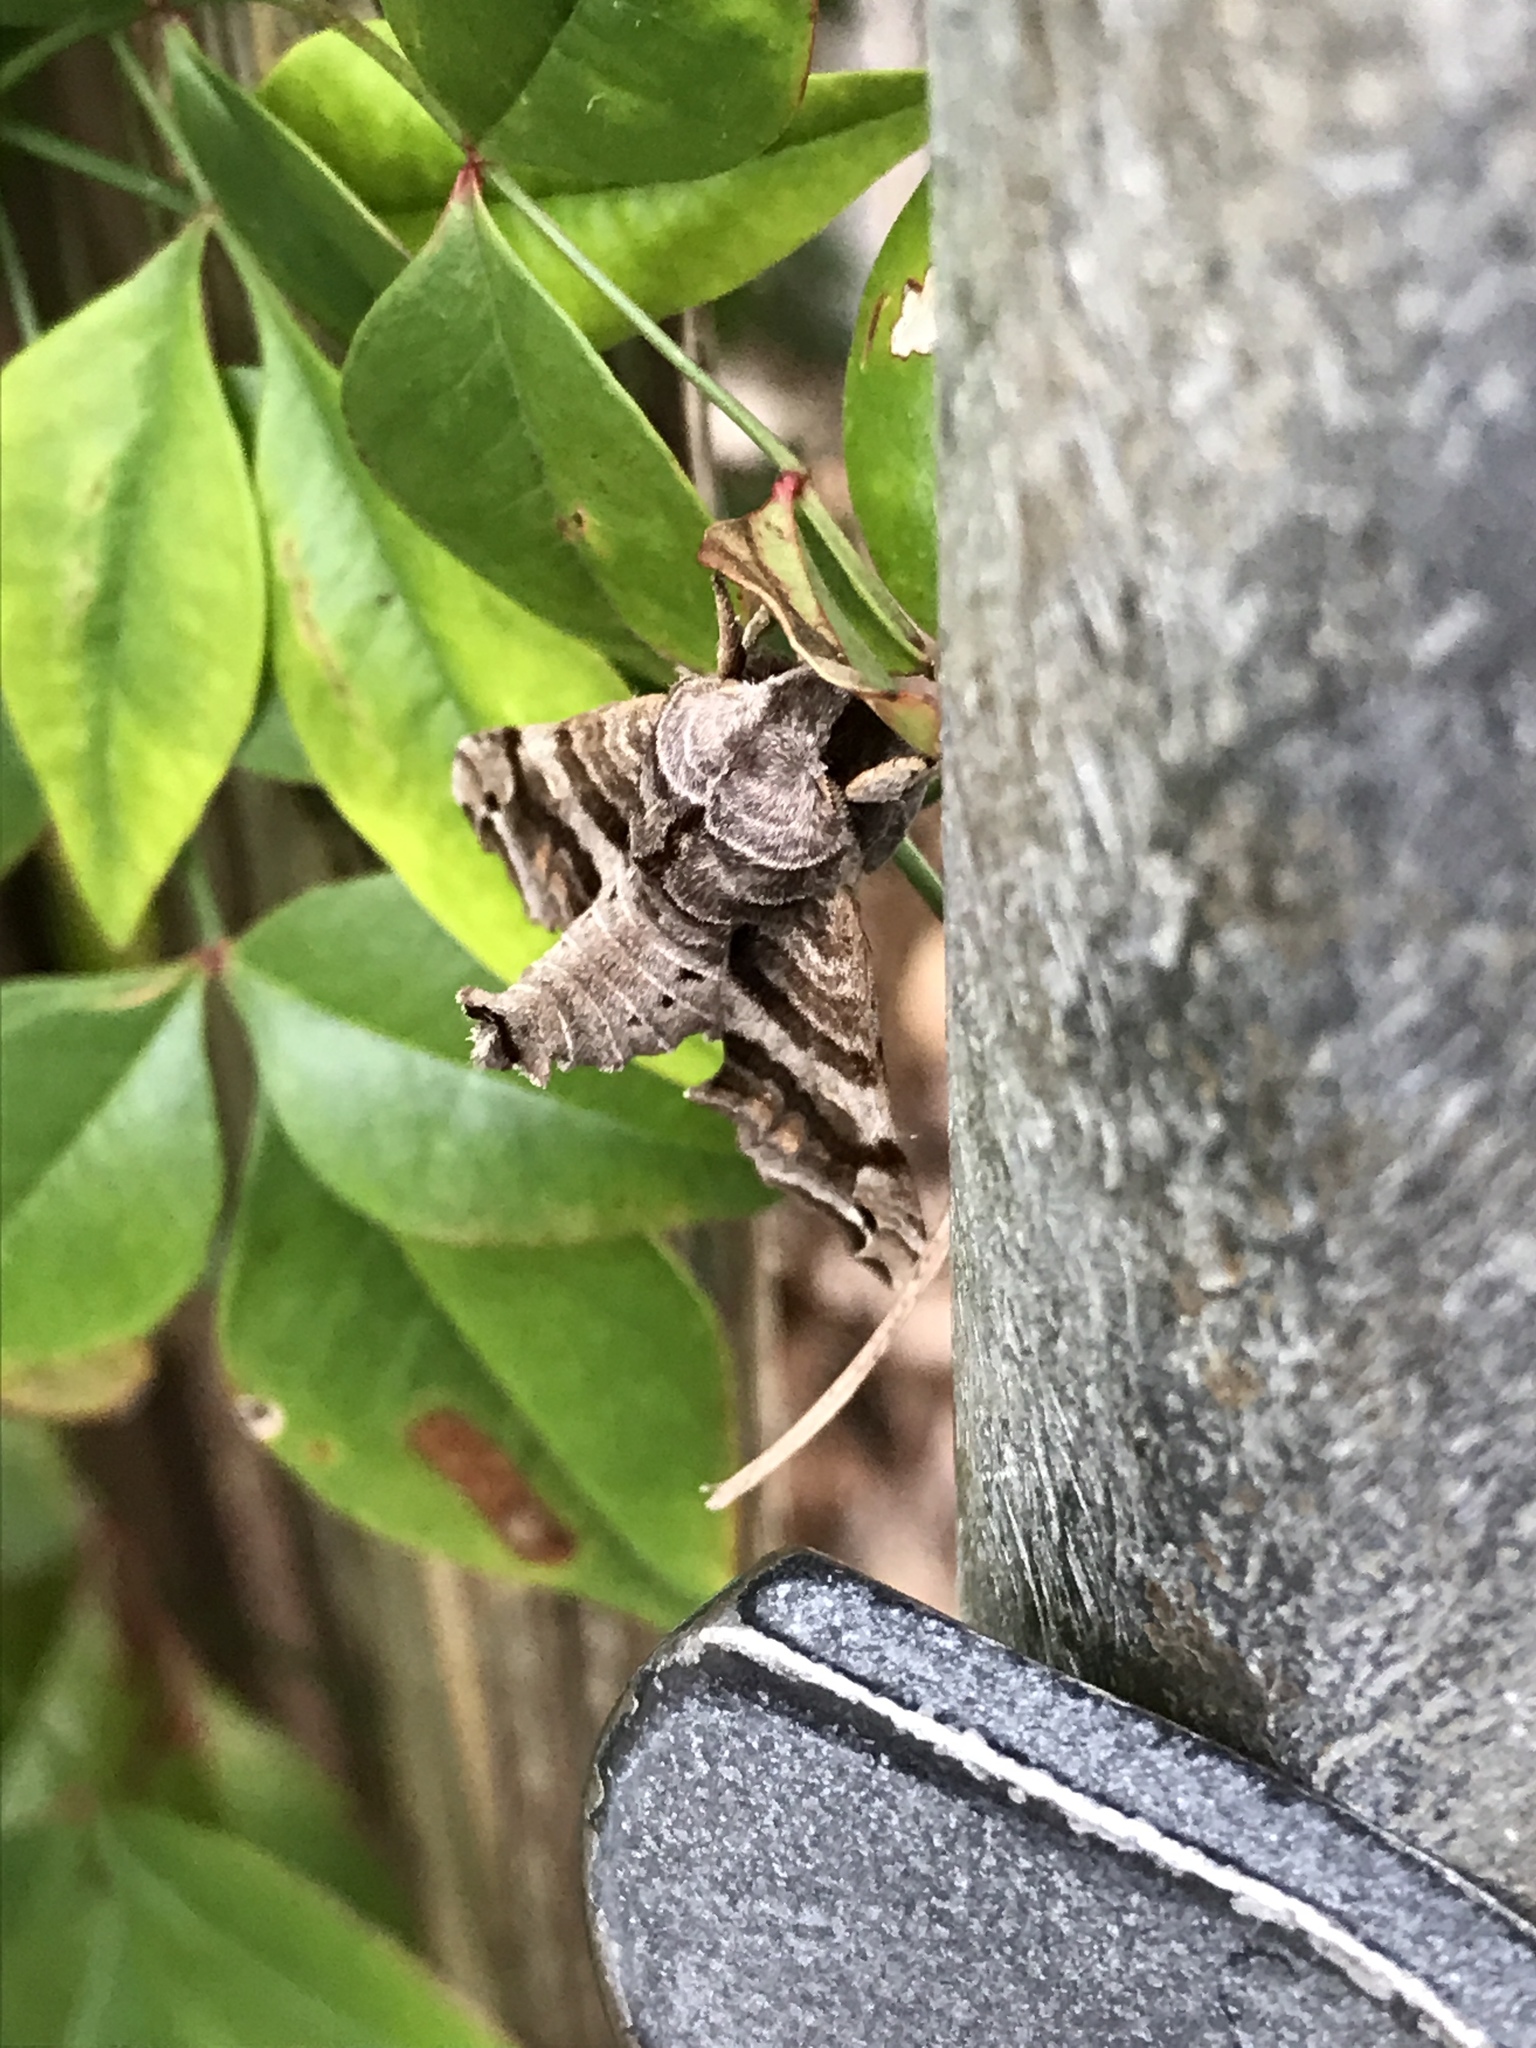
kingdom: Animalia
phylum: Arthropoda
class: Insecta
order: Lepidoptera
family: Sphingidae
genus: Deidamia
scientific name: Deidamia inscriptum
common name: Lettered sphinx
